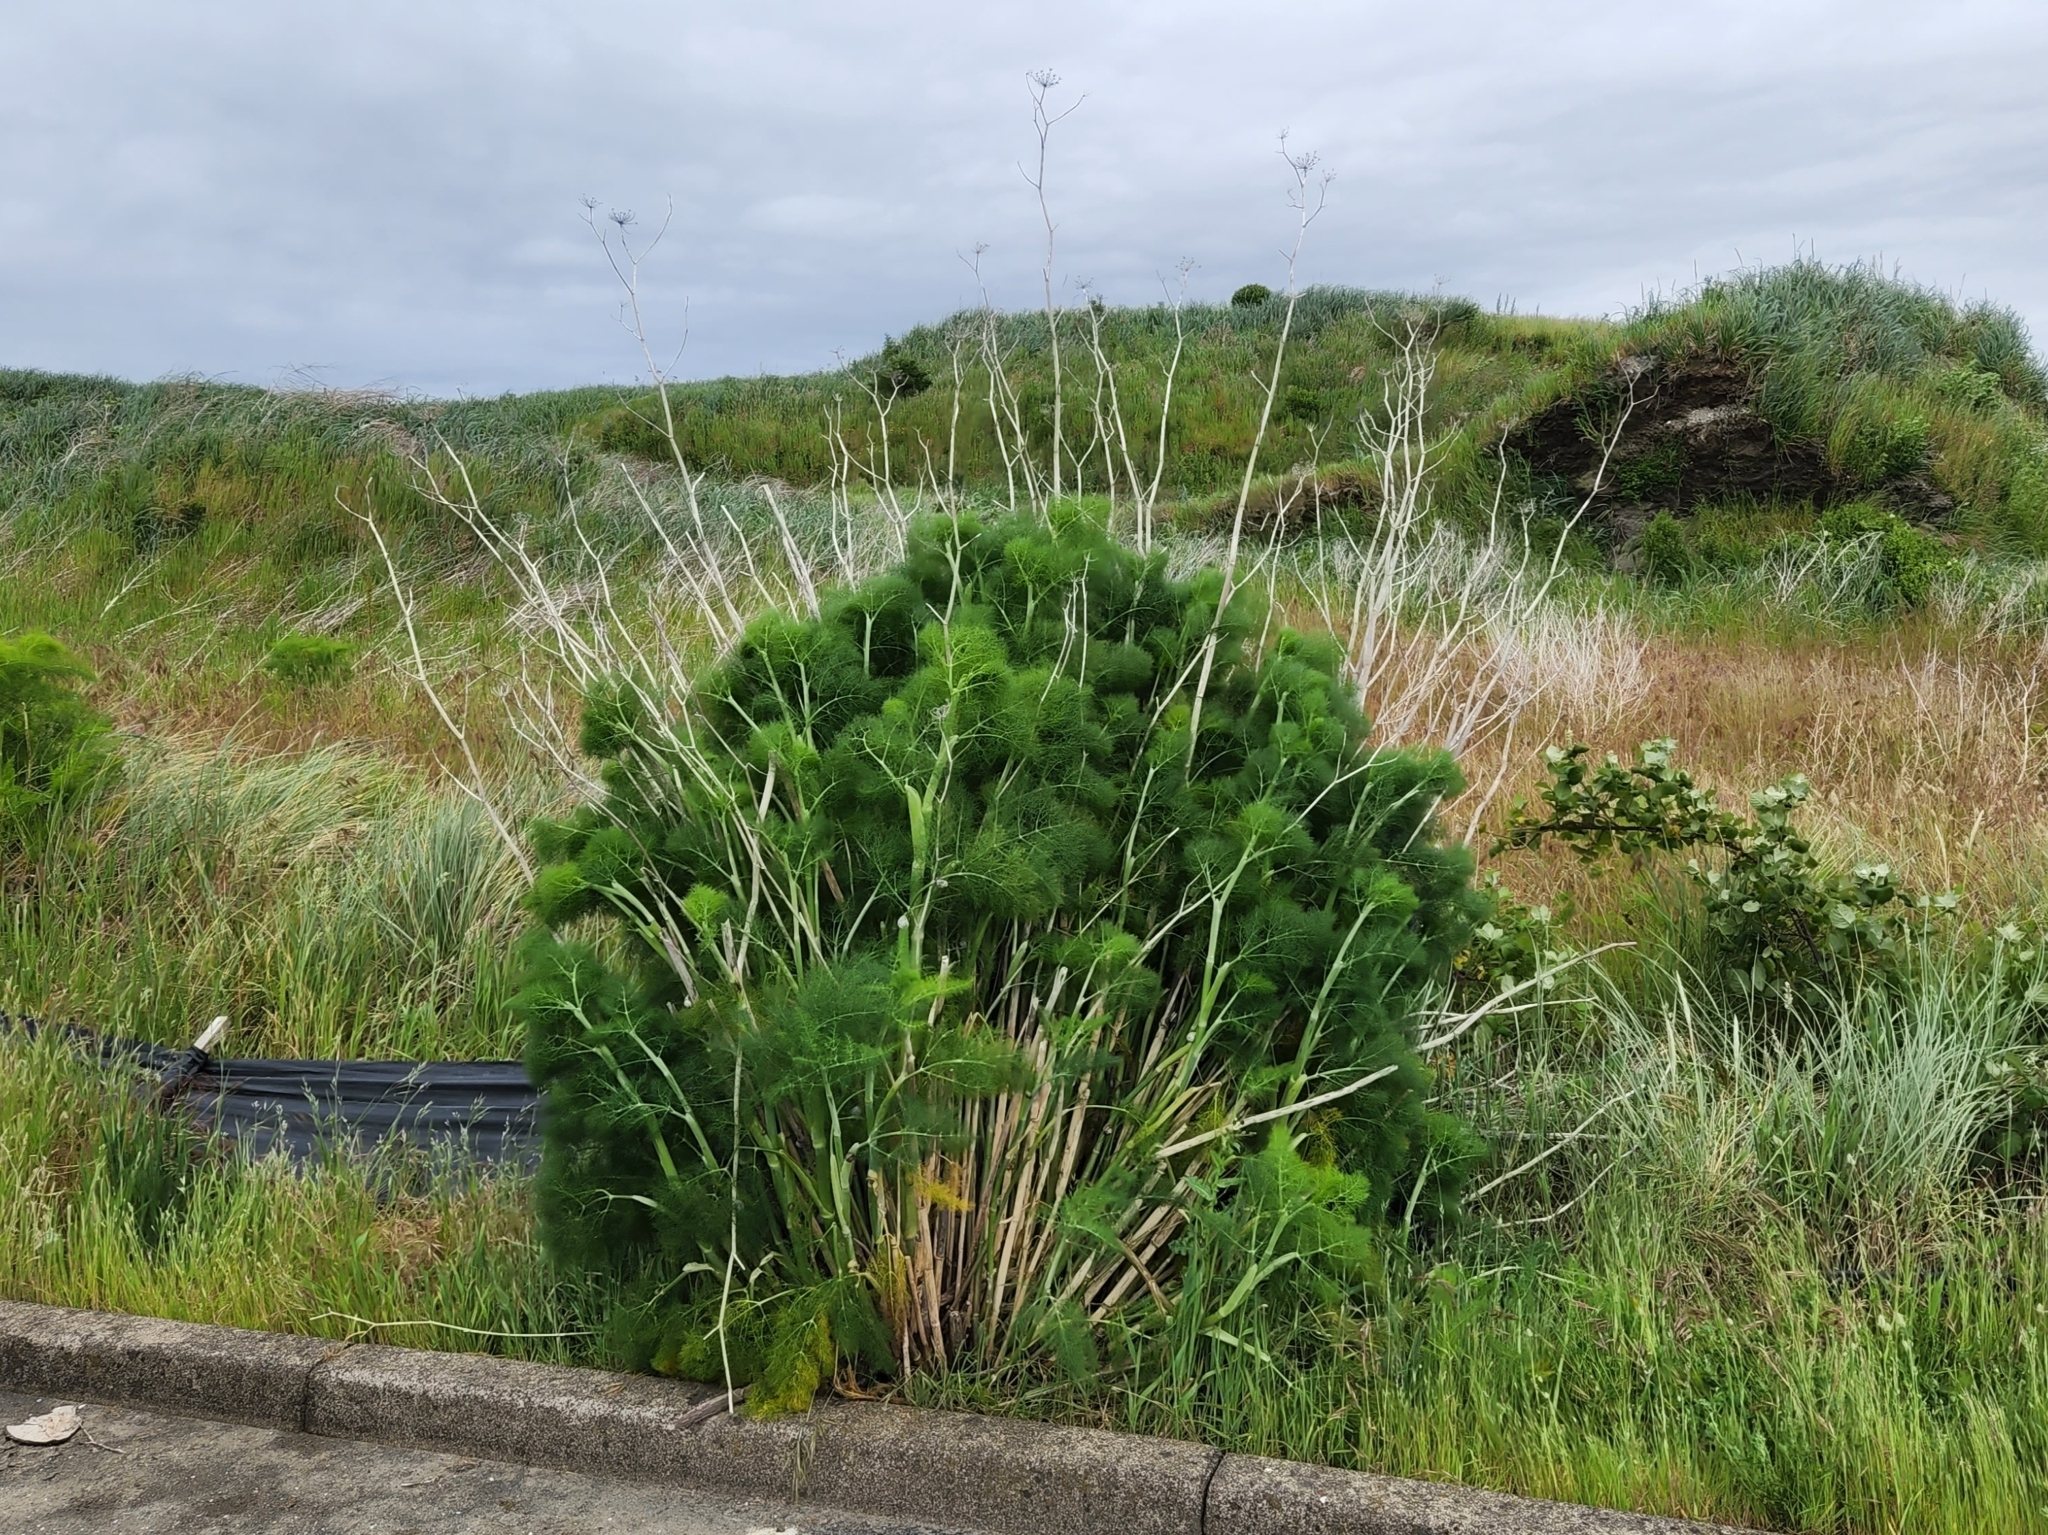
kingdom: Plantae
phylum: Tracheophyta
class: Magnoliopsida
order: Apiales
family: Apiaceae
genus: Foeniculum
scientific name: Foeniculum vulgare
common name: Fennel
